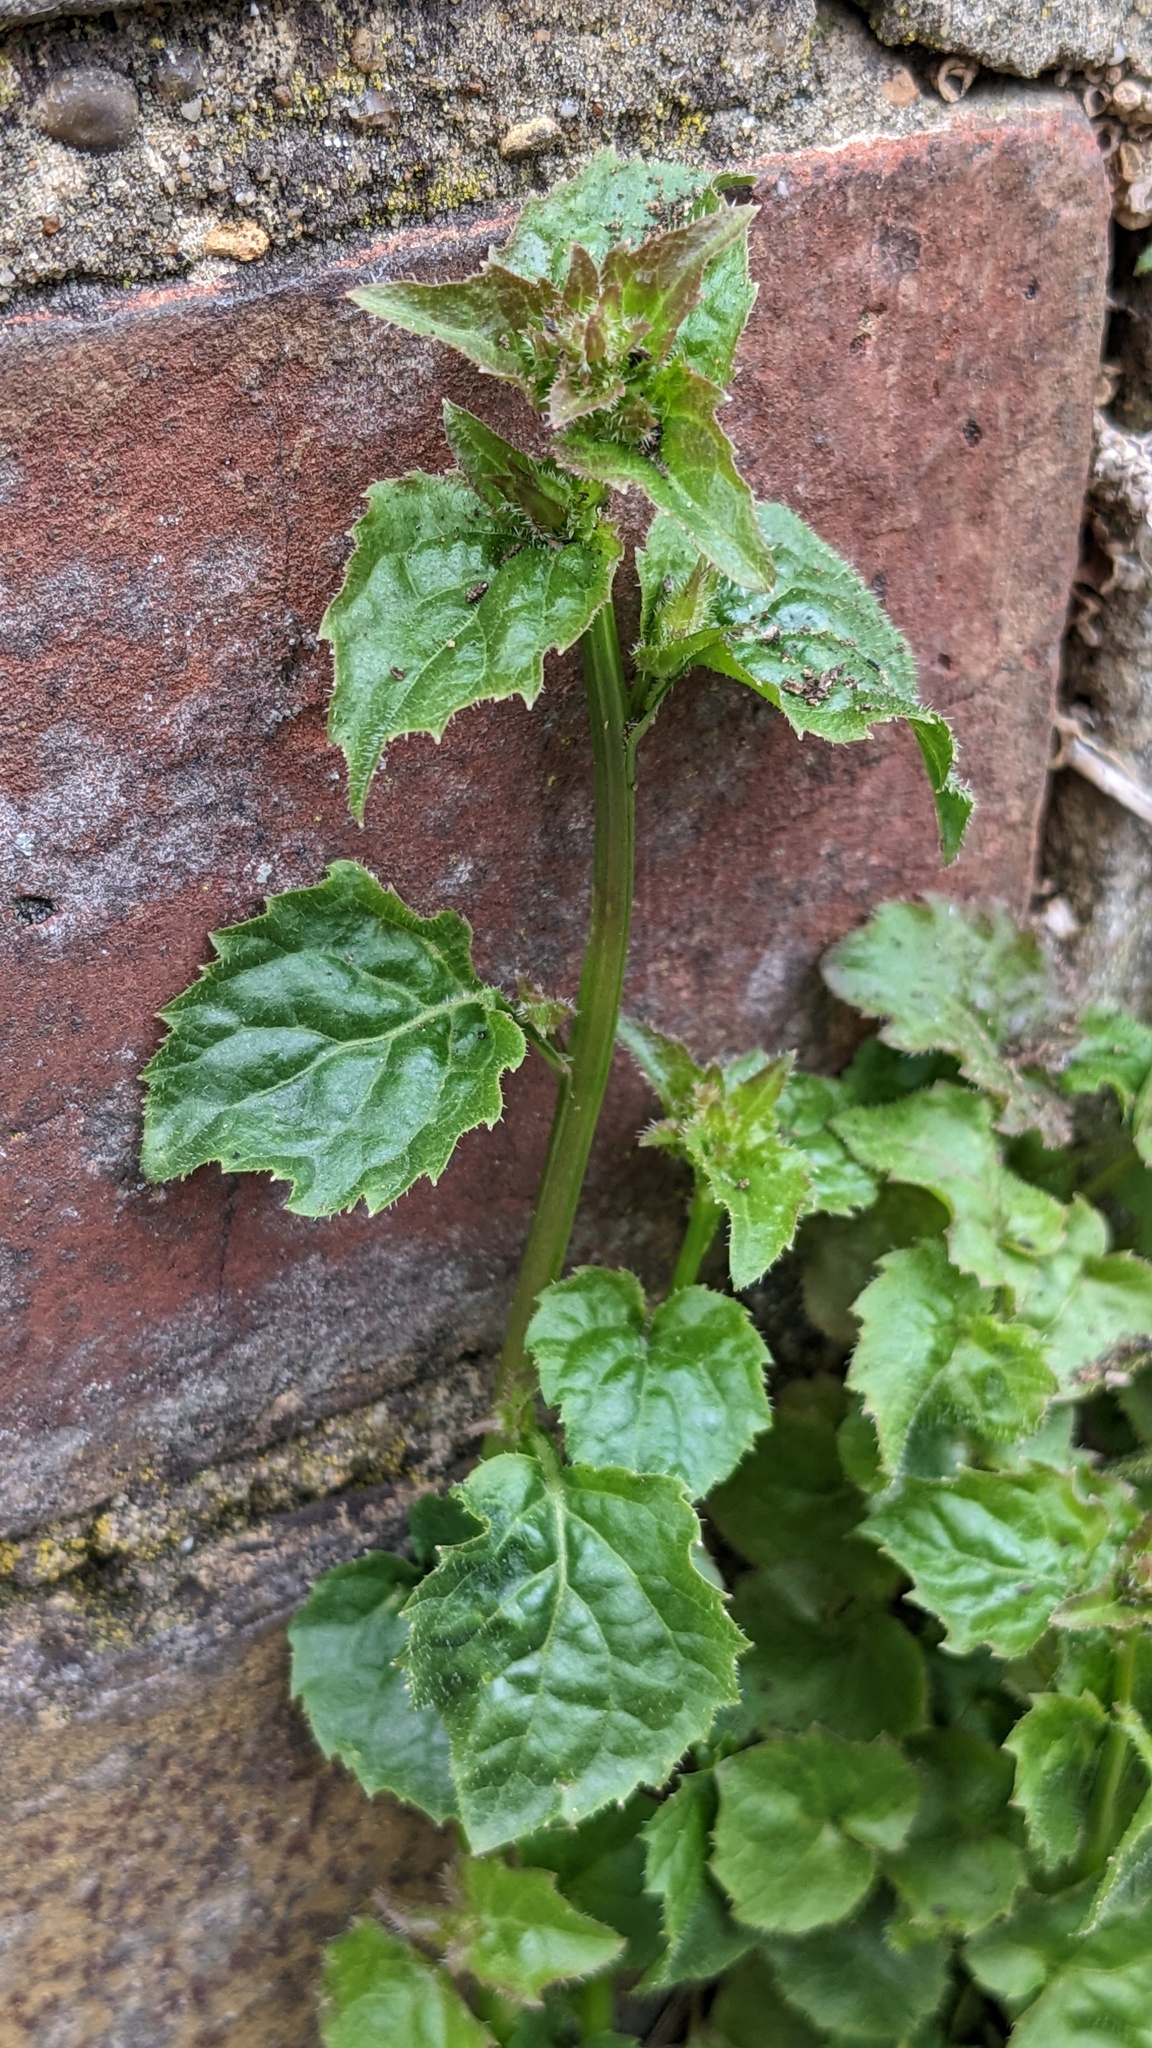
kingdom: Plantae
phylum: Tracheophyta
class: Magnoliopsida
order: Asterales
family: Campanulaceae
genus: Campanula
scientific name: Campanula poscharskyana
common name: Trailing bellflower
